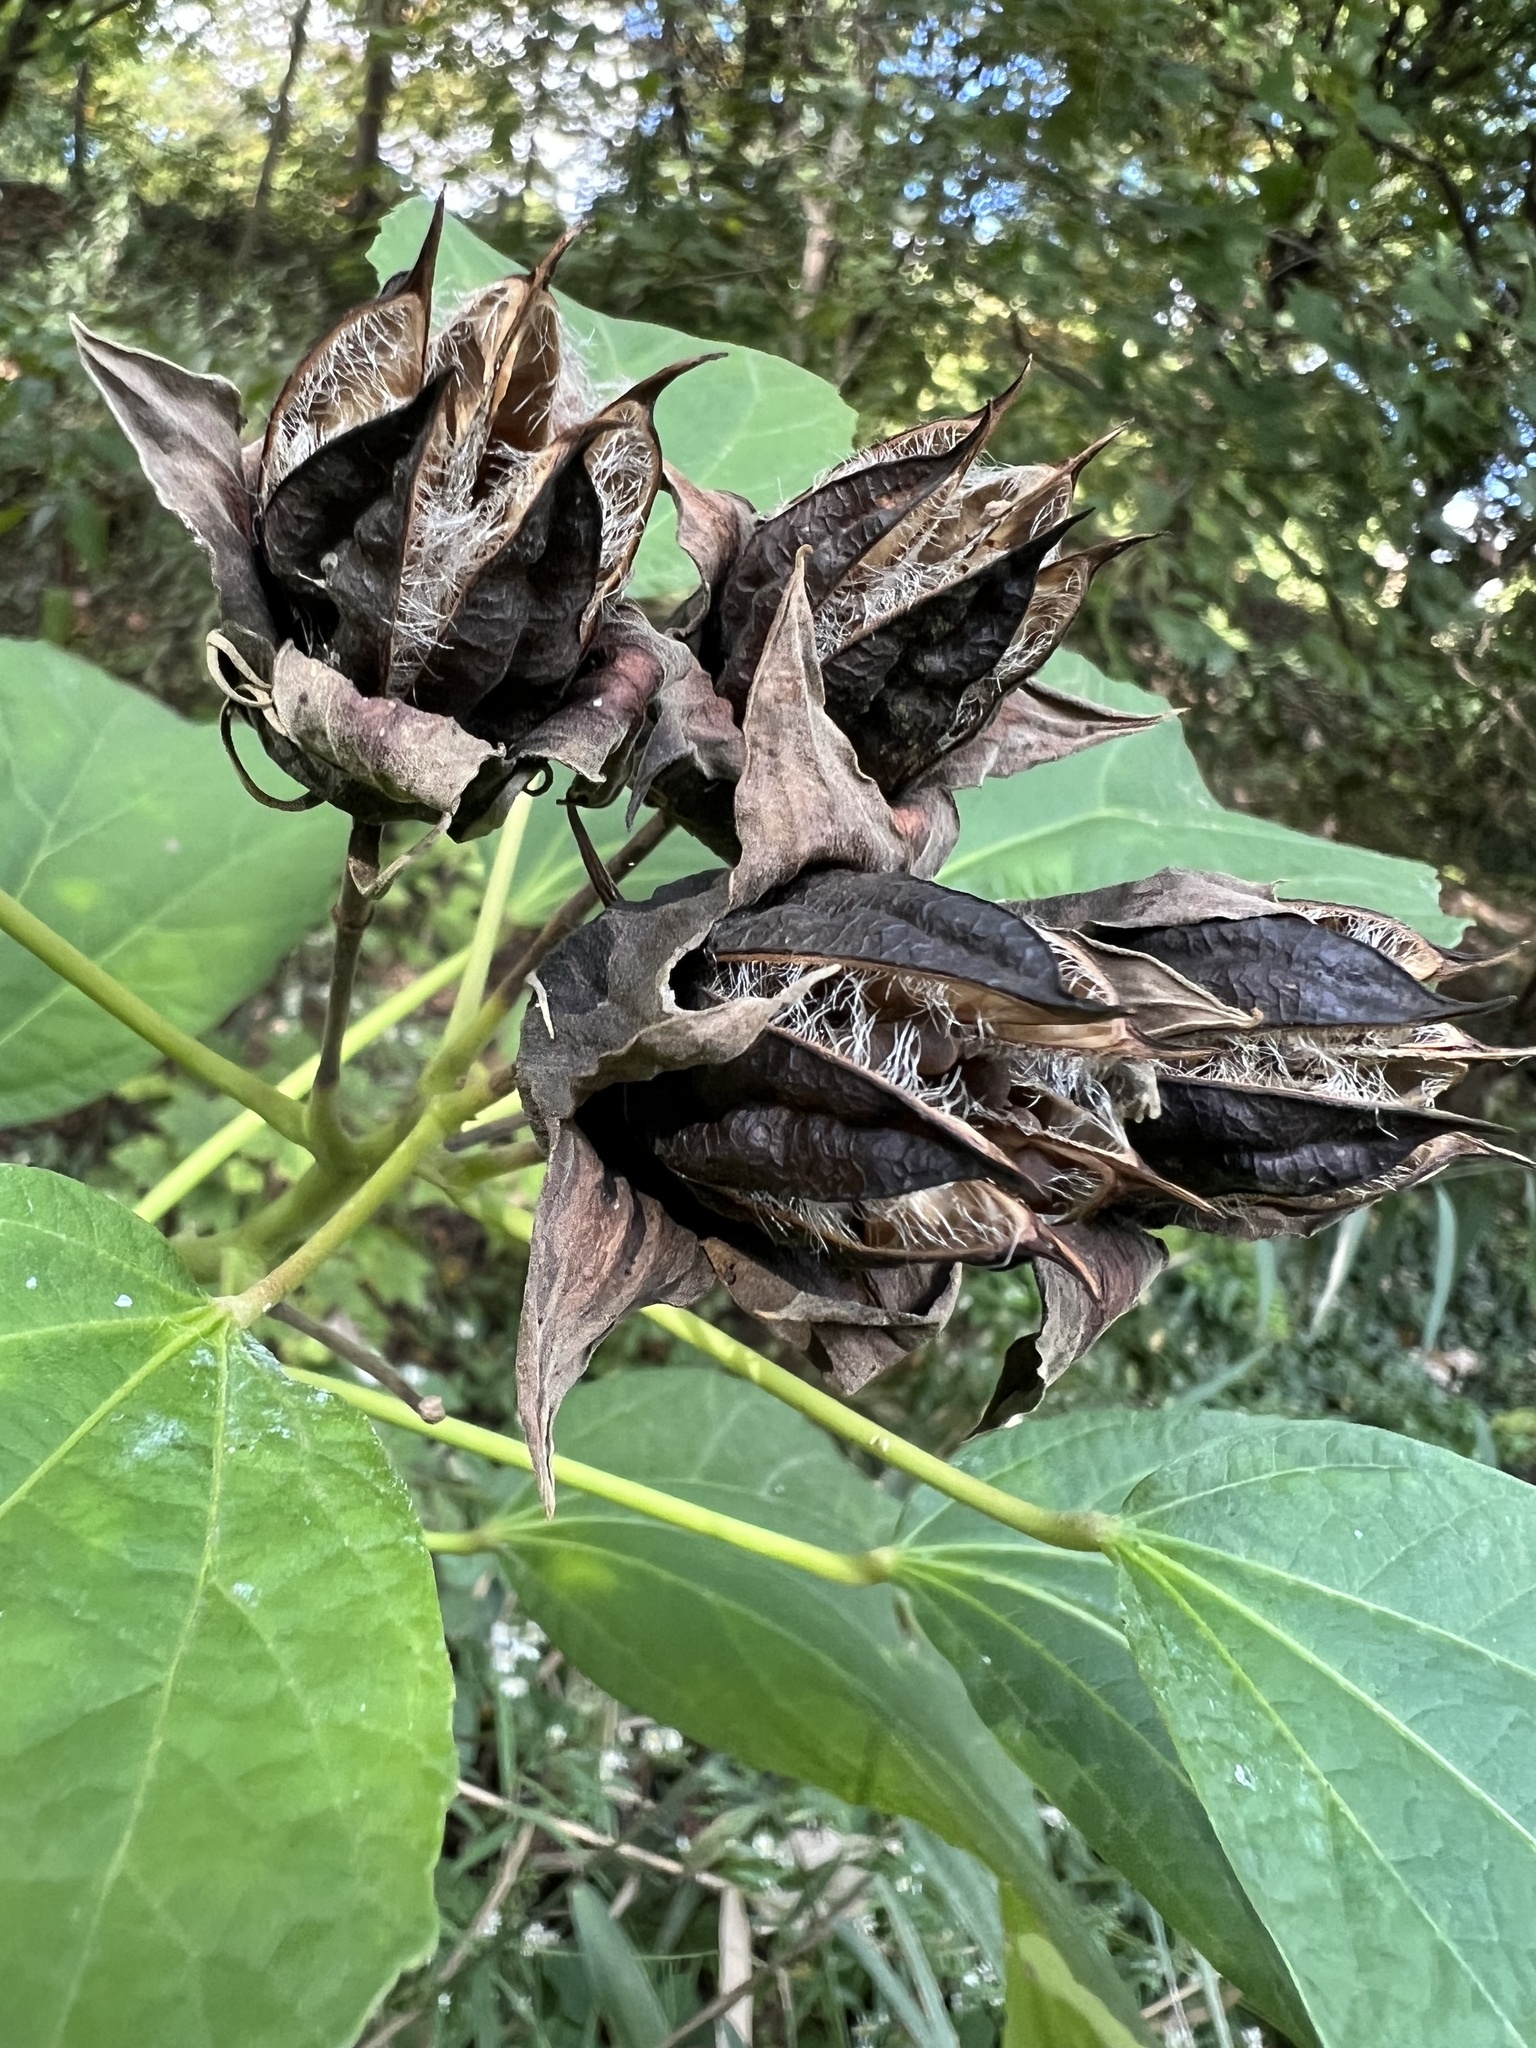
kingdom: Plantae
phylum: Tracheophyta
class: Magnoliopsida
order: Malvales
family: Malvaceae
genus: Hibiscus
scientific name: Hibiscus moscheutos
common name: Common rose-mallow
